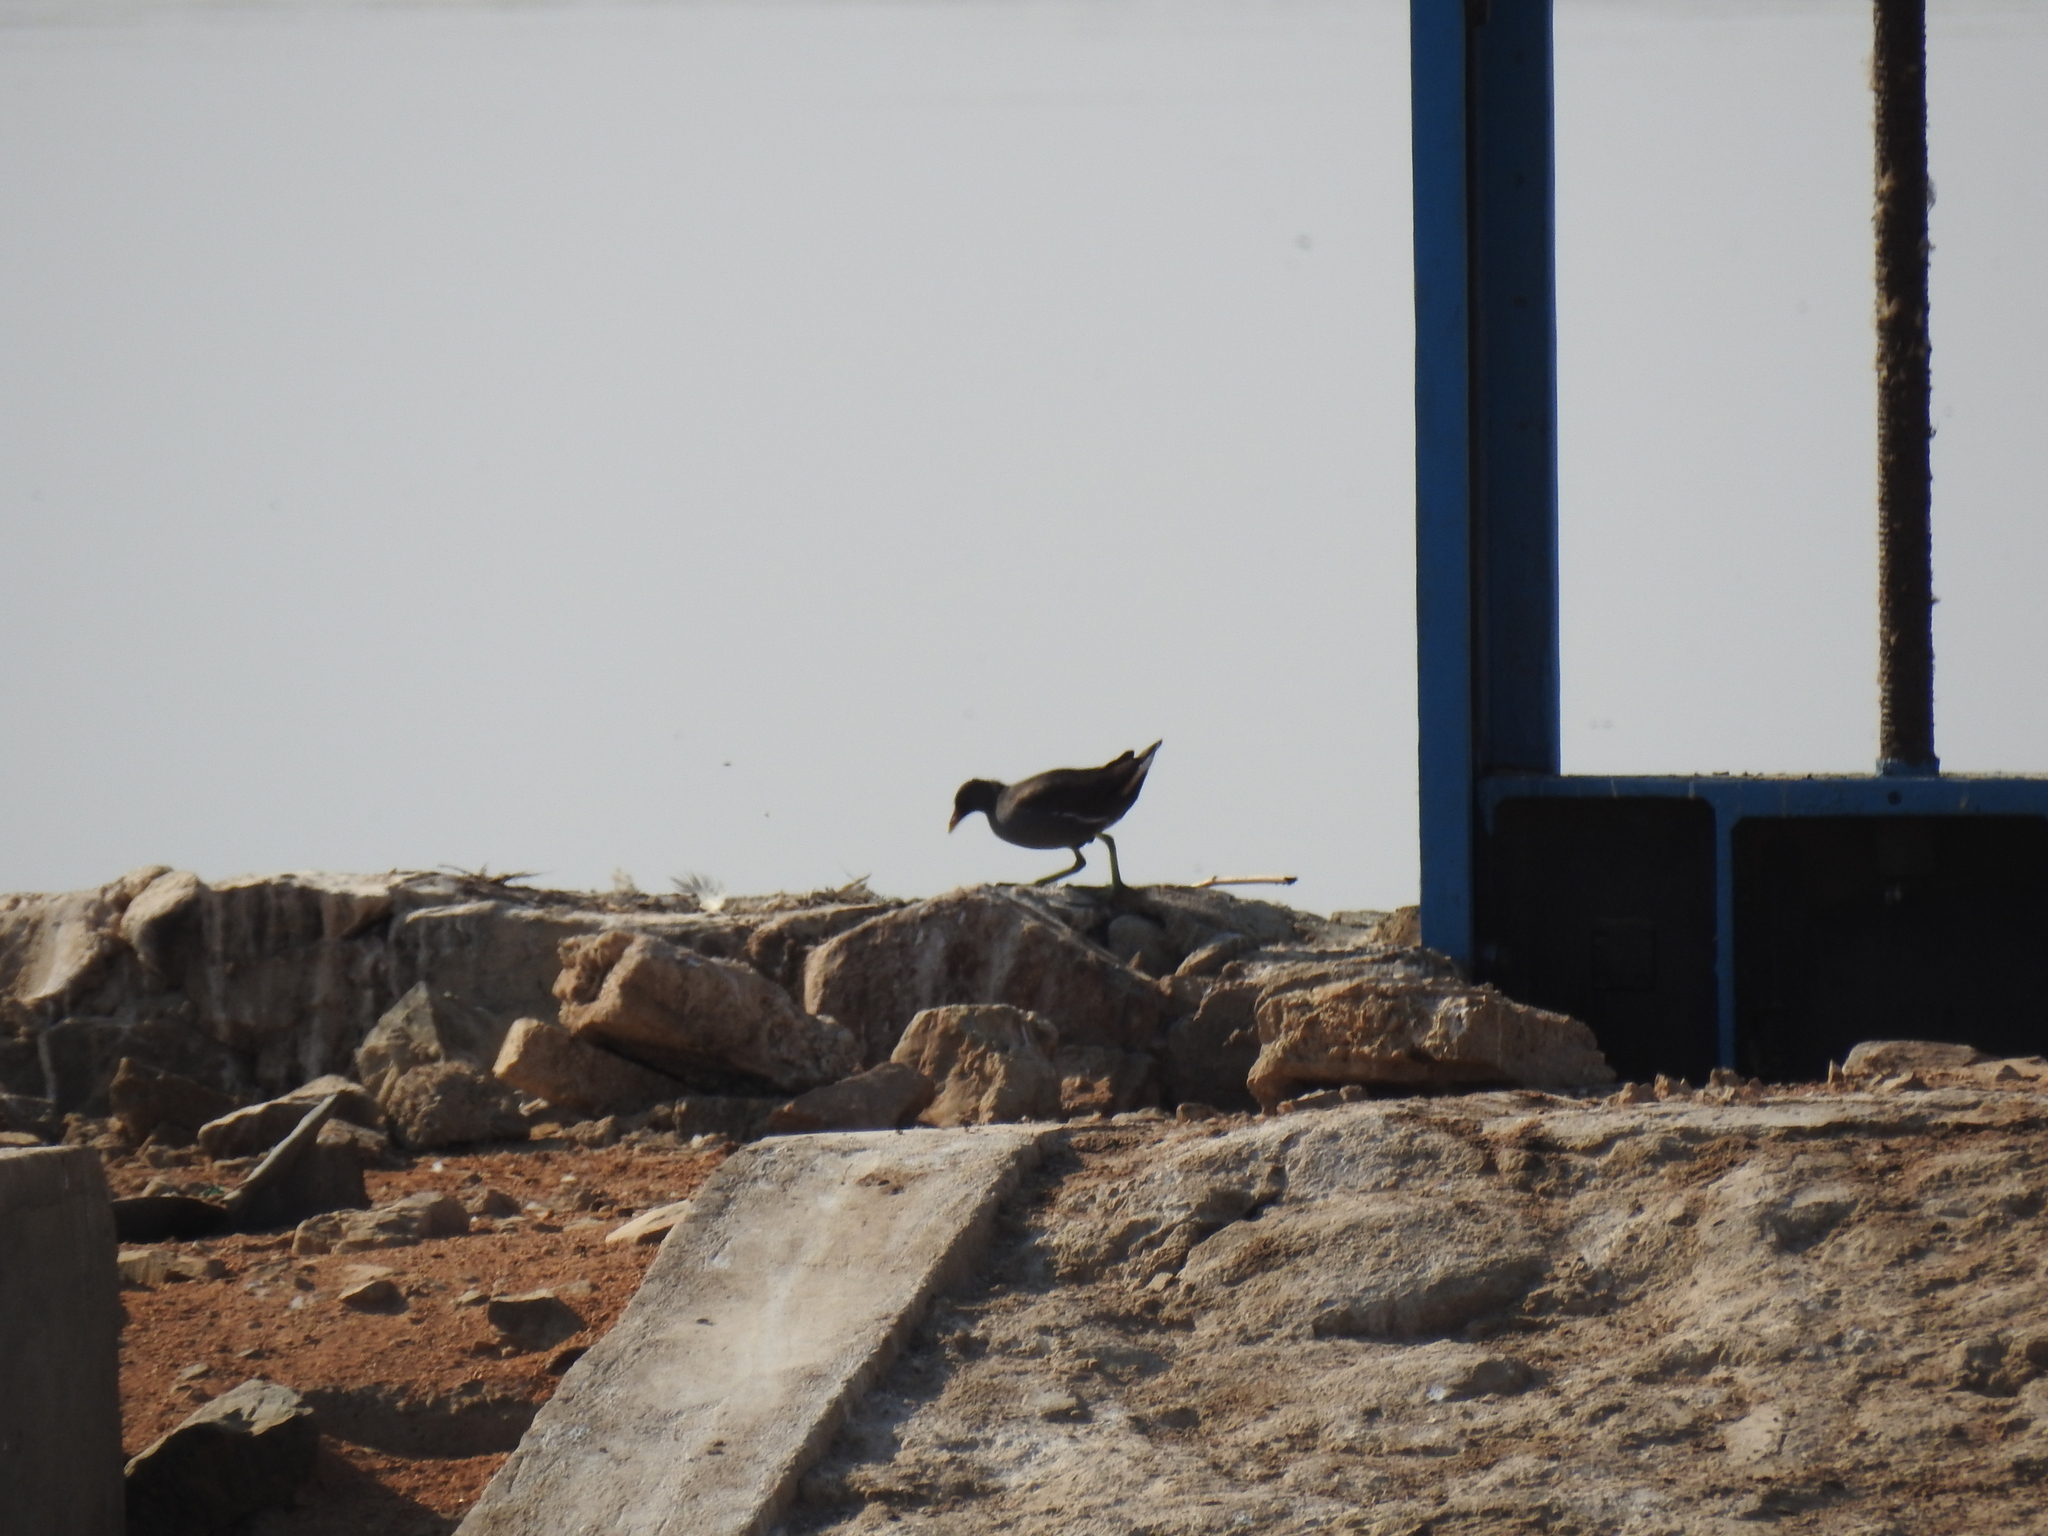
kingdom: Animalia
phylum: Chordata
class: Aves
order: Gruiformes
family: Rallidae
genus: Gallinula
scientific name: Gallinula chloropus
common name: Common moorhen
